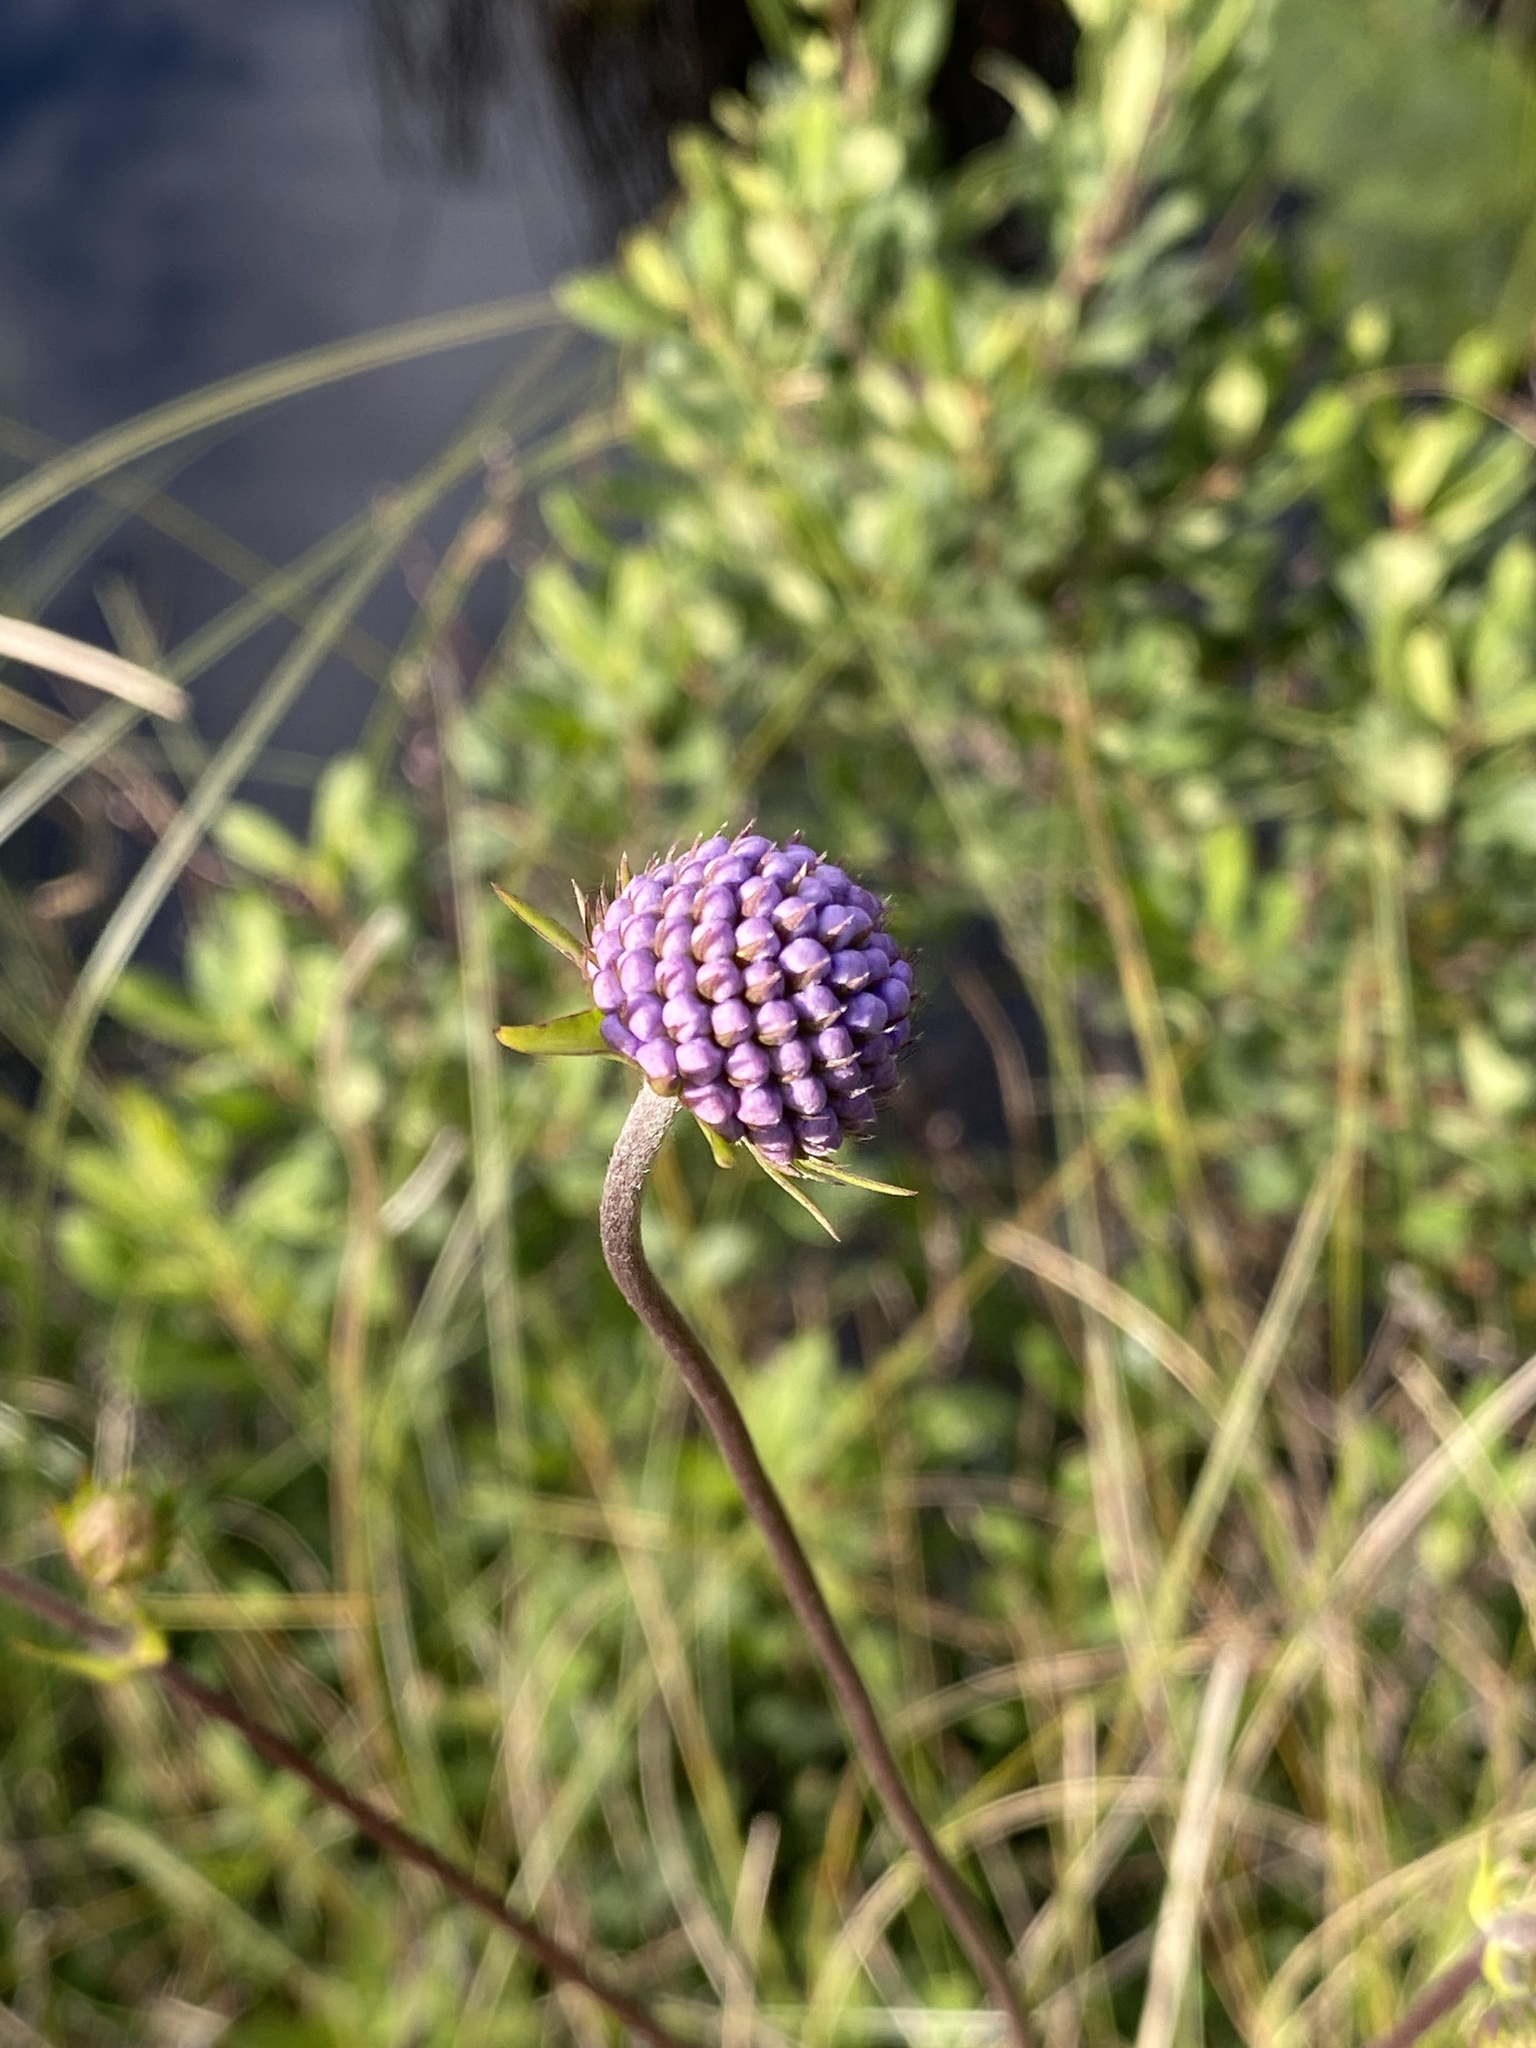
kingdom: Plantae
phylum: Tracheophyta
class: Magnoliopsida
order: Dipsacales
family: Caprifoliaceae
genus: Succisa
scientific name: Succisa pratensis
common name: Devil's-bit
